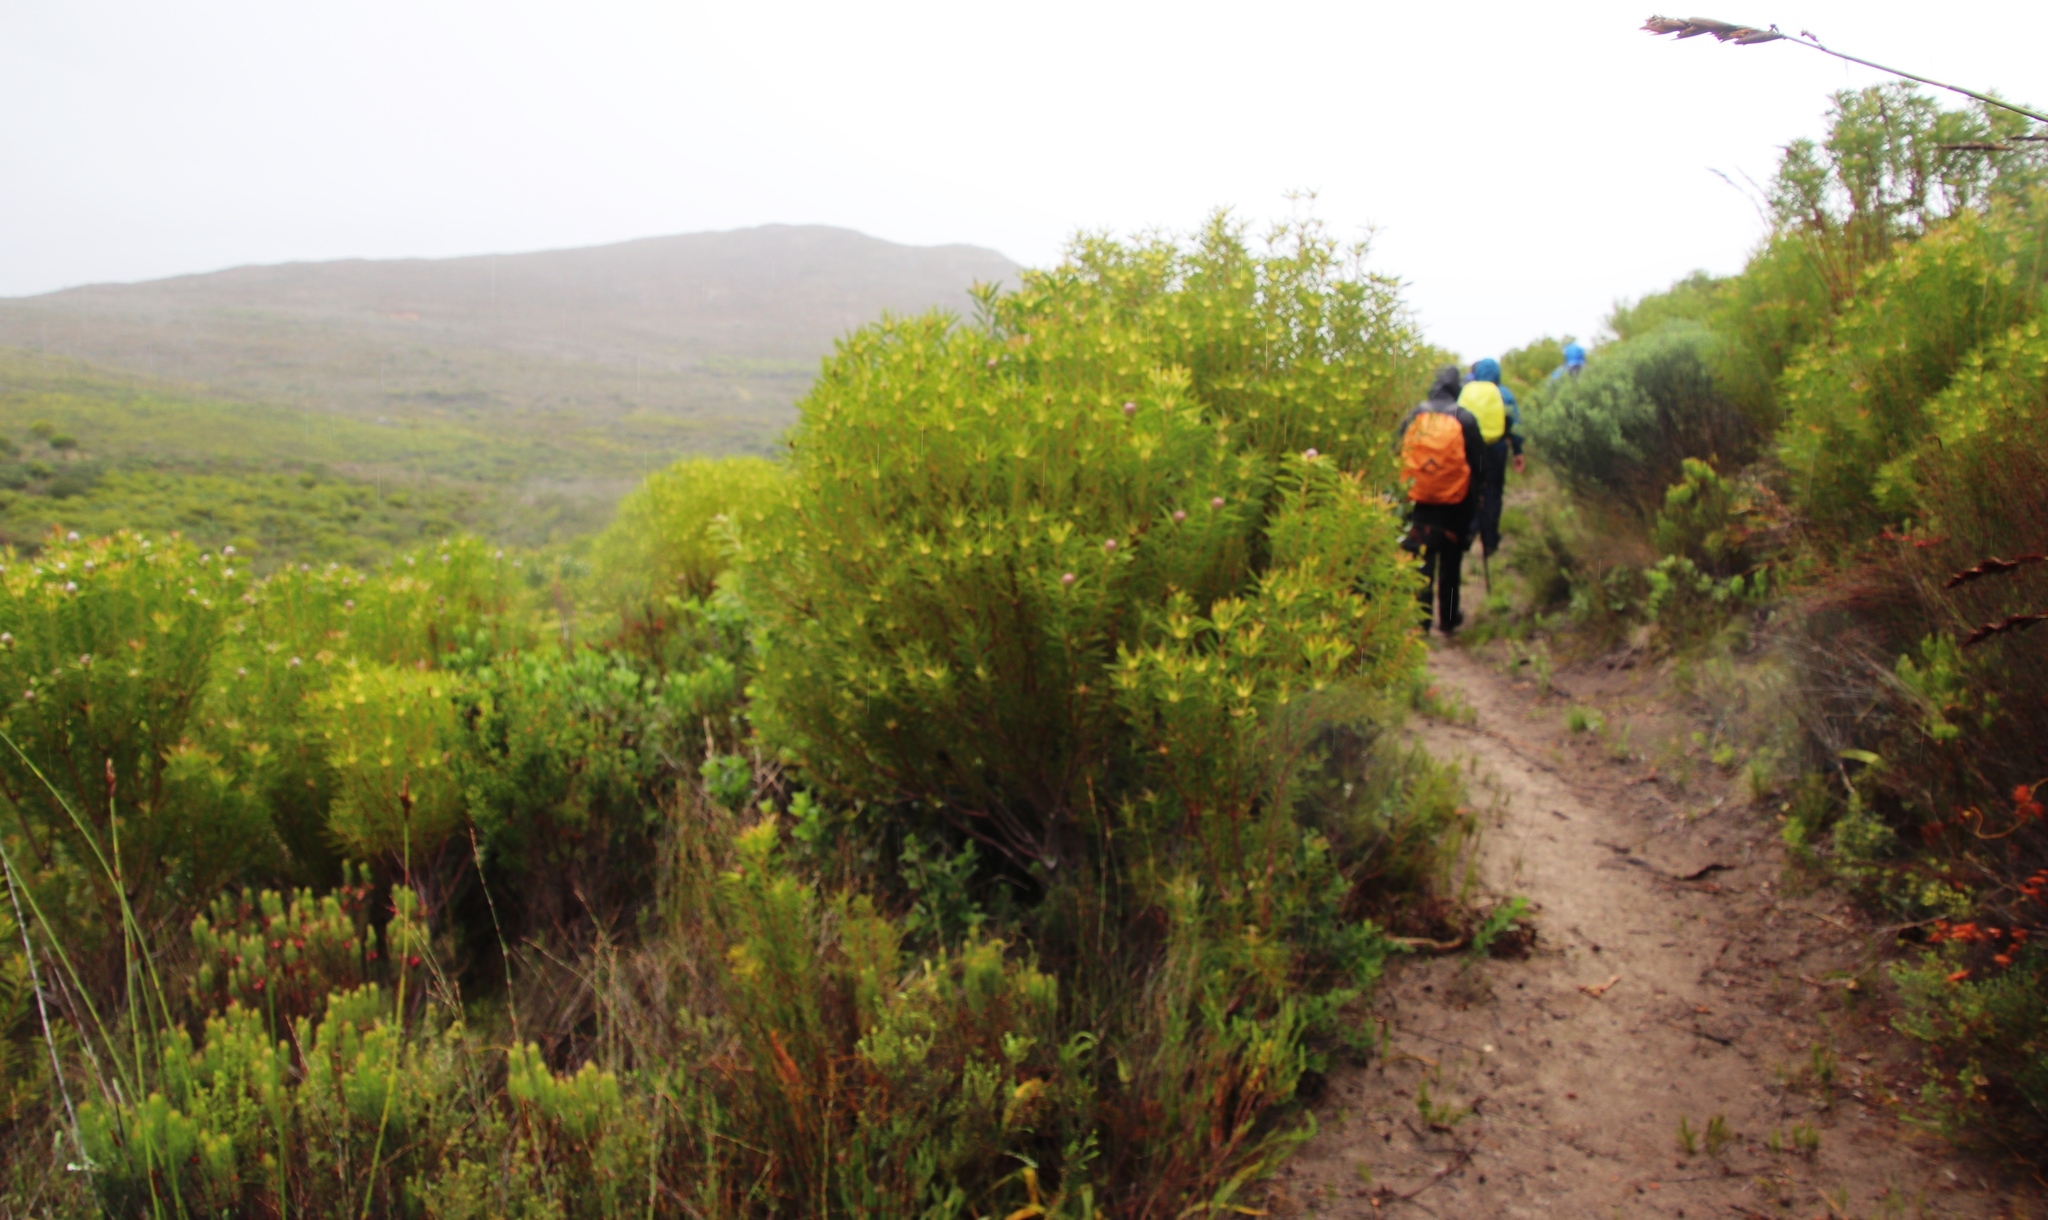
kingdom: Plantae
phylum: Tracheophyta
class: Magnoliopsida
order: Proteales
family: Proteaceae
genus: Leucadendron
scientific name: Leucadendron coniferum
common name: Dune conebush
